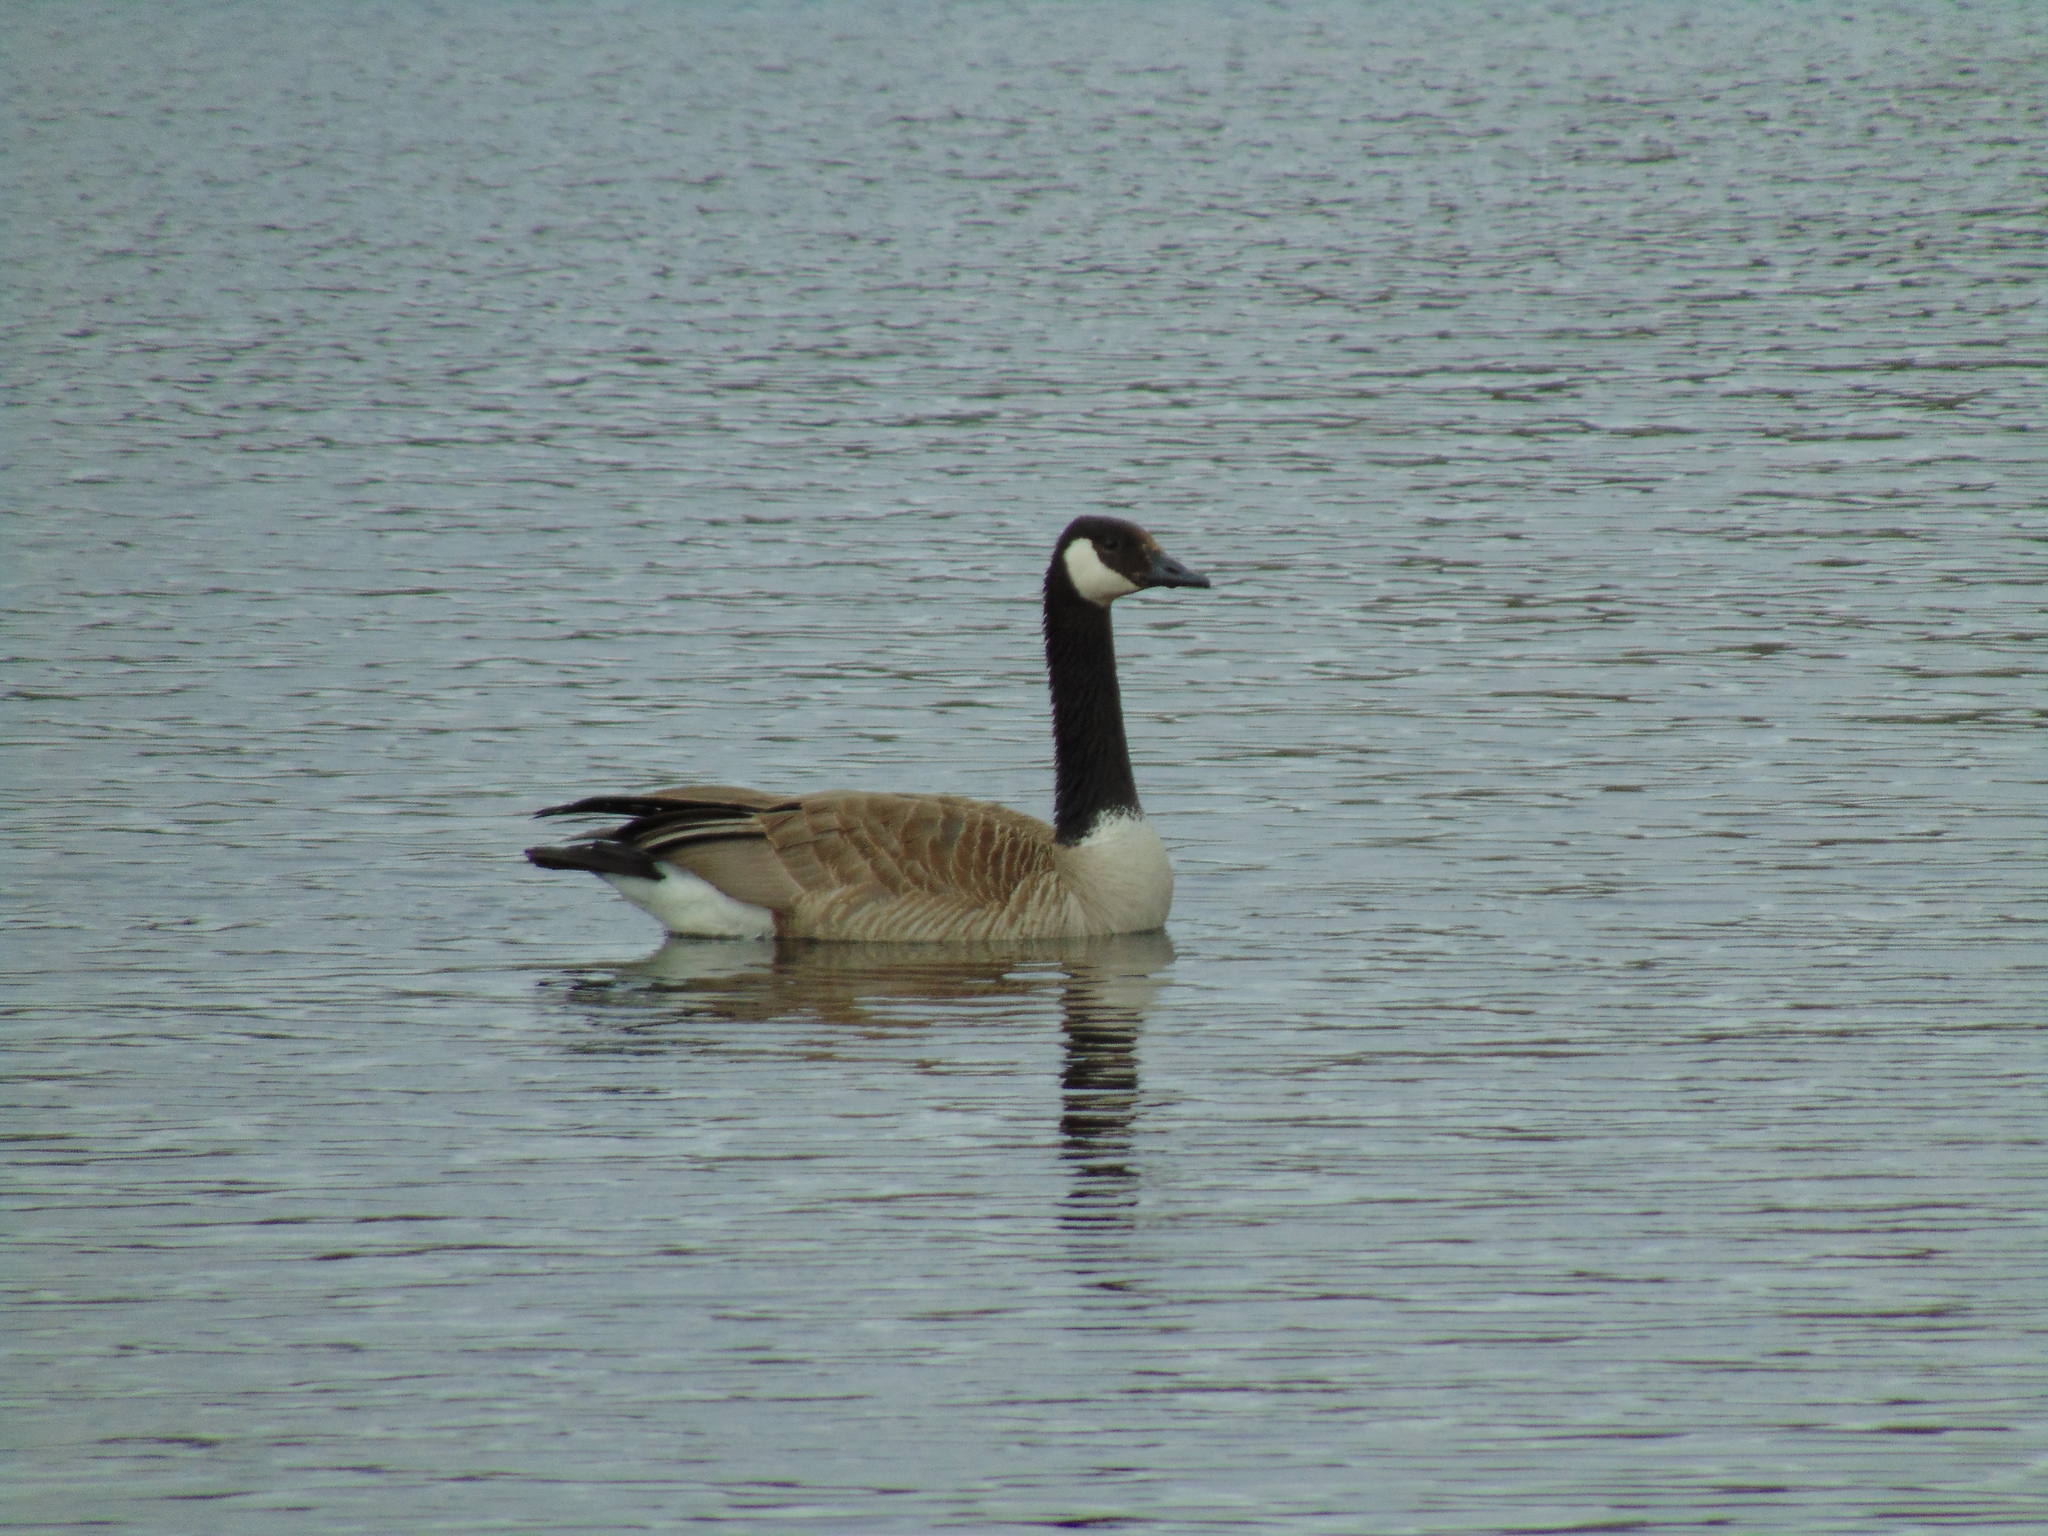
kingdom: Animalia
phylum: Chordata
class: Aves
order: Anseriformes
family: Anatidae
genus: Branta
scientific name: Branta canadensis
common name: Canada goose
